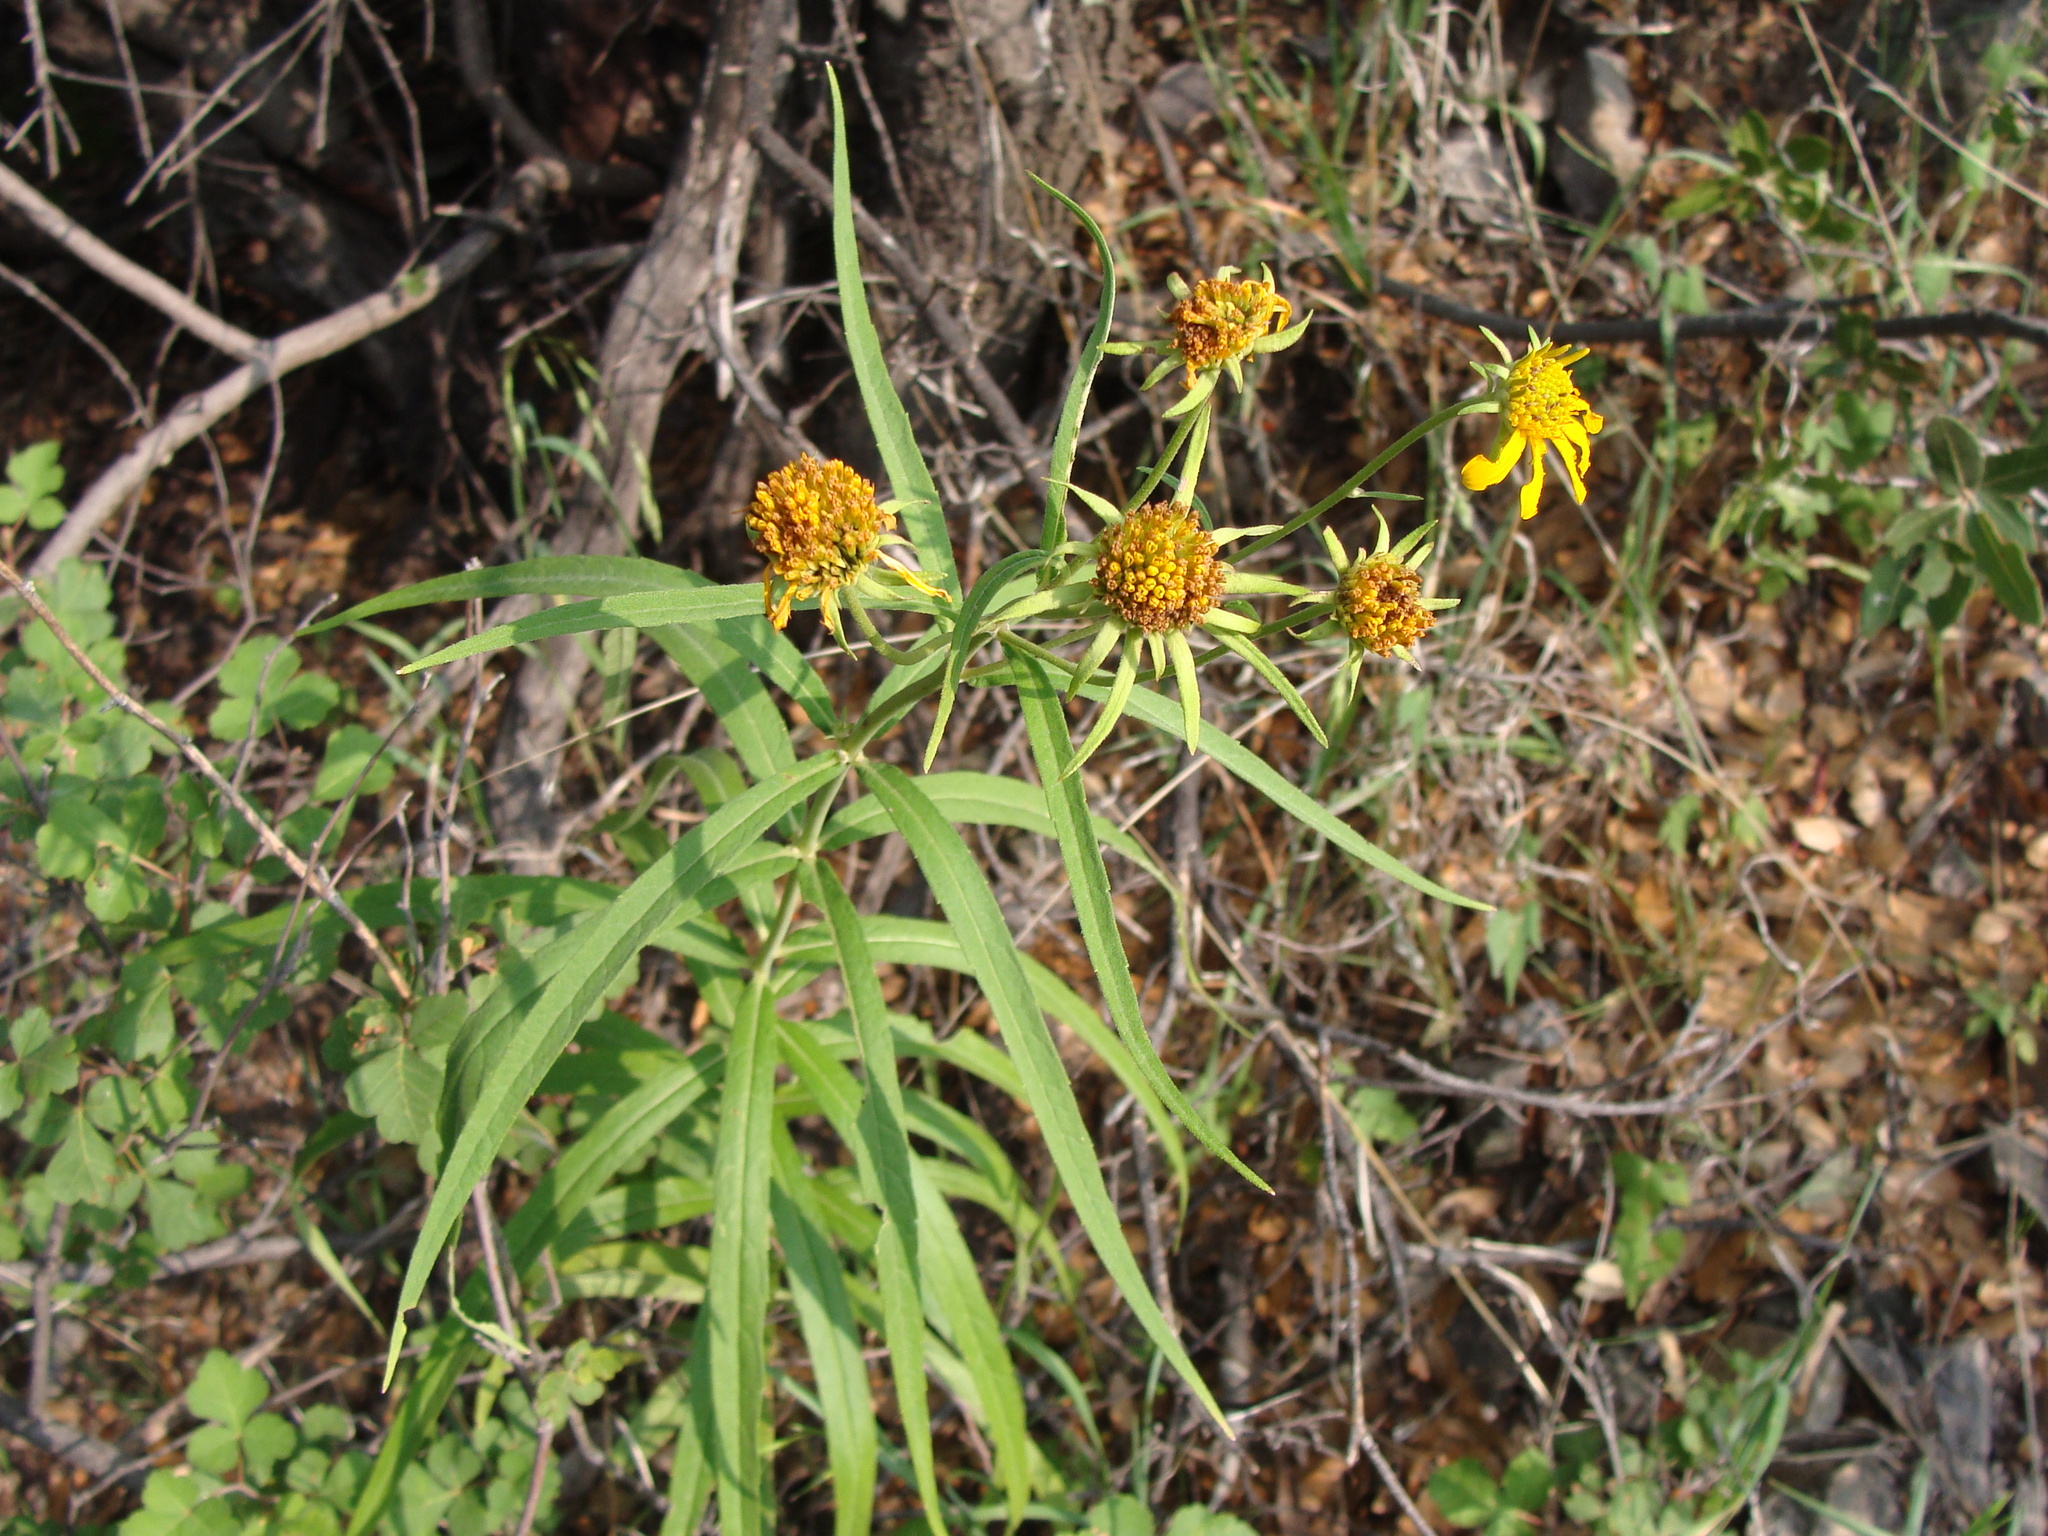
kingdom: Plantae
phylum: Tracheophyta
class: Magnoliopsida
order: Asterales
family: Asteraceae
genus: Verbesina
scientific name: Verbesina longifolia
